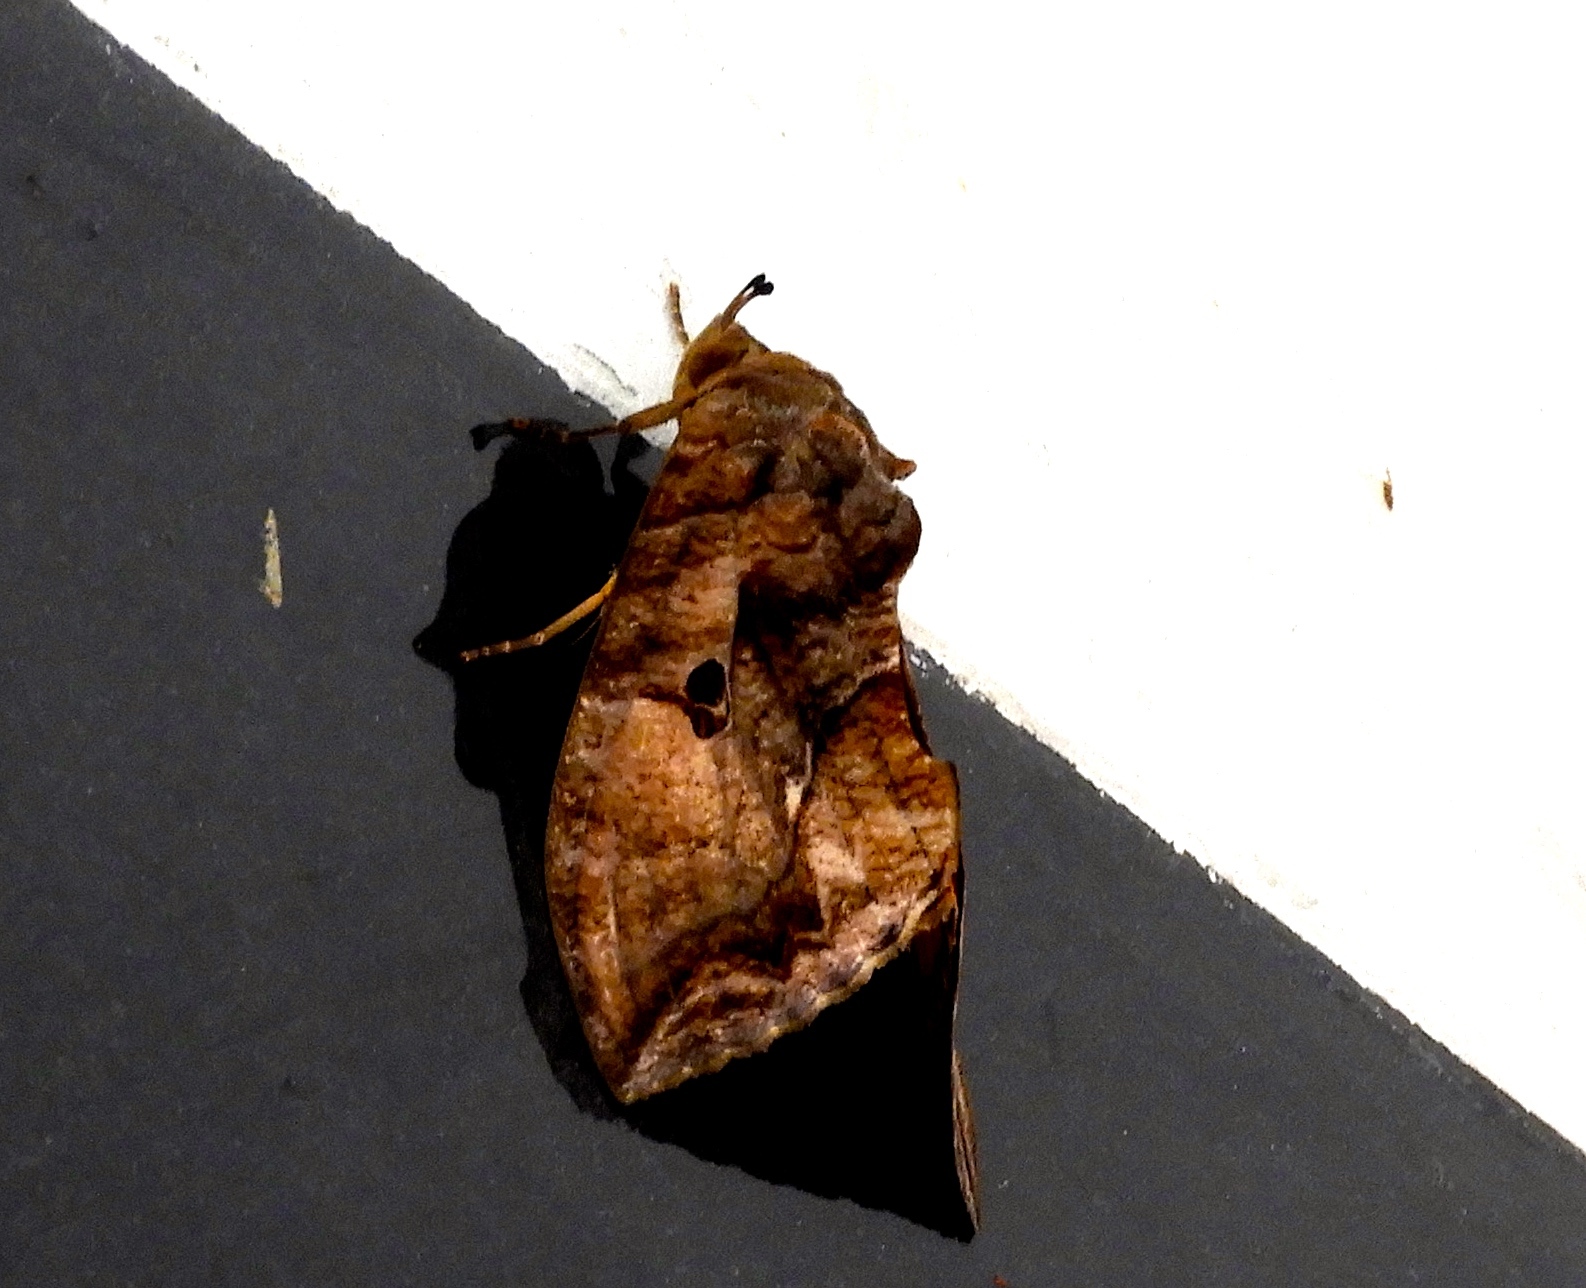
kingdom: Animalia
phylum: Arthropoda
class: Insecta
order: Lepidoptera
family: Erebidae
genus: Eudocima
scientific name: Eudocima serpentifera
